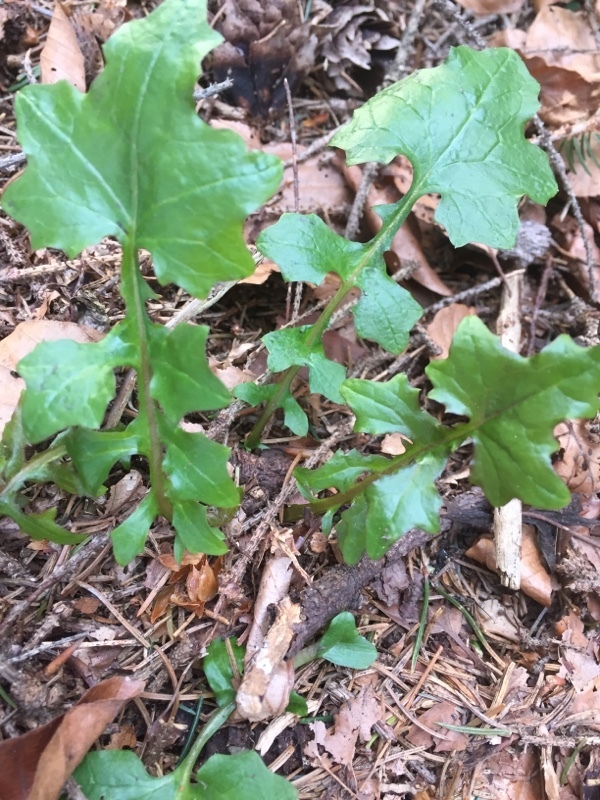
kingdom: Plantae
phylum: Tracheophyta
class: Magnoliopsida
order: Asterales
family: Asteraceae
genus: Mycelis
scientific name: Mycelis muralis
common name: Wall lettuce
